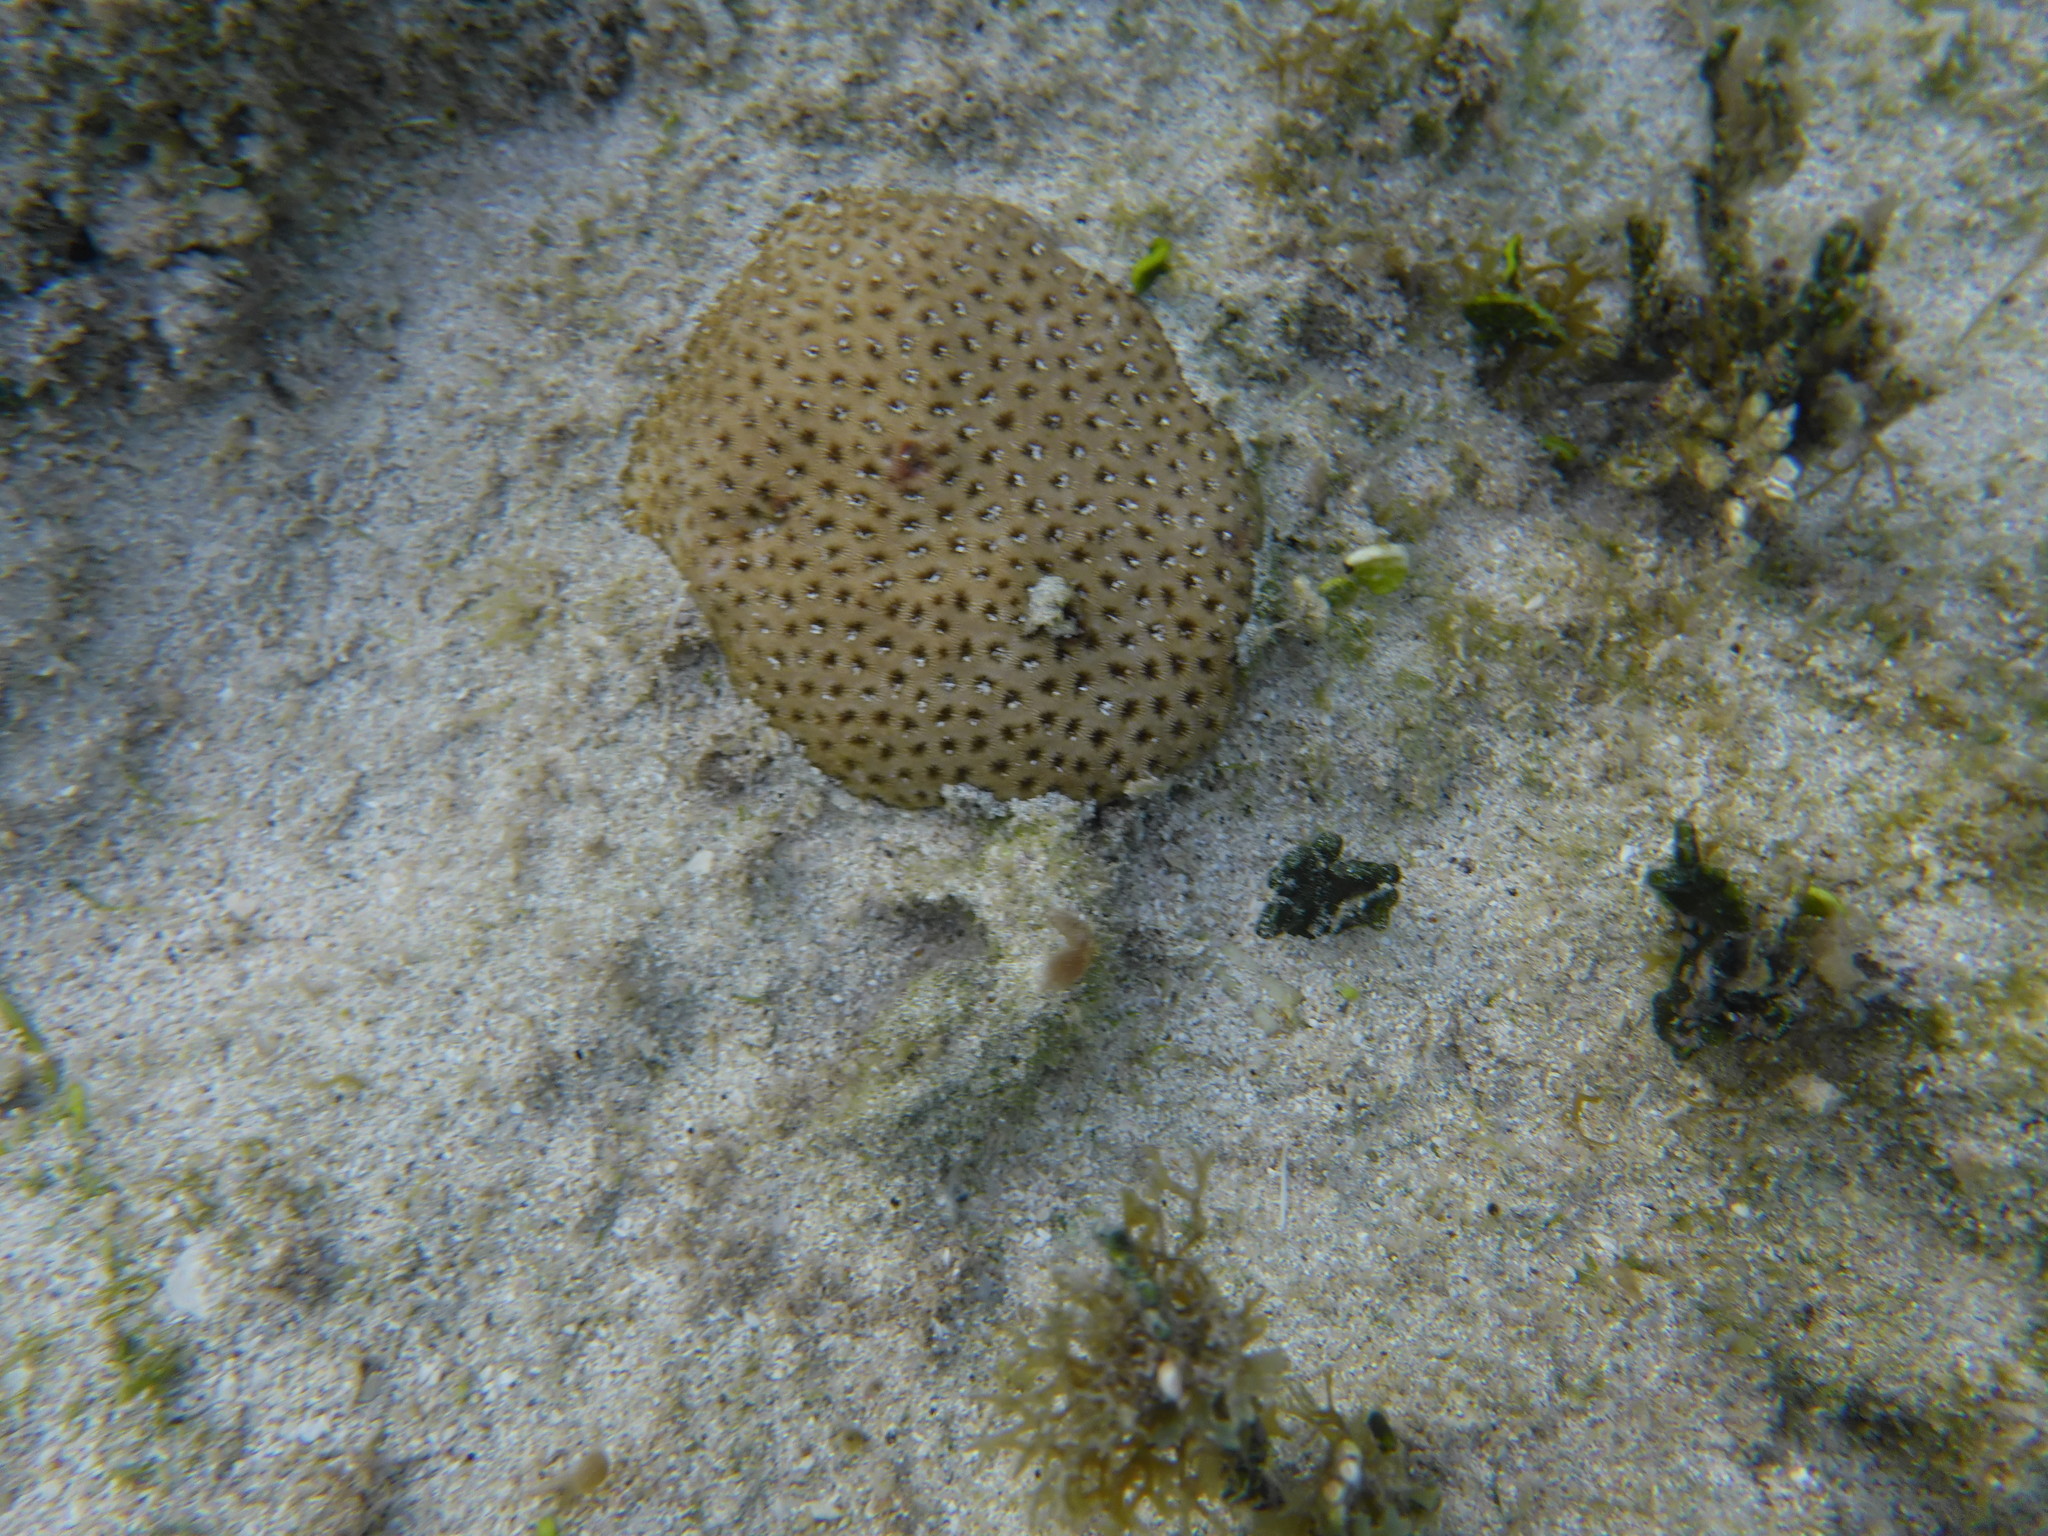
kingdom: Animalia
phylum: Cnidaria
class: Anthozoa
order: Scleractinia
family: Rhizangiidae
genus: Siderastrea
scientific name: Siderastrea radians
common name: Lesser starlet coral
